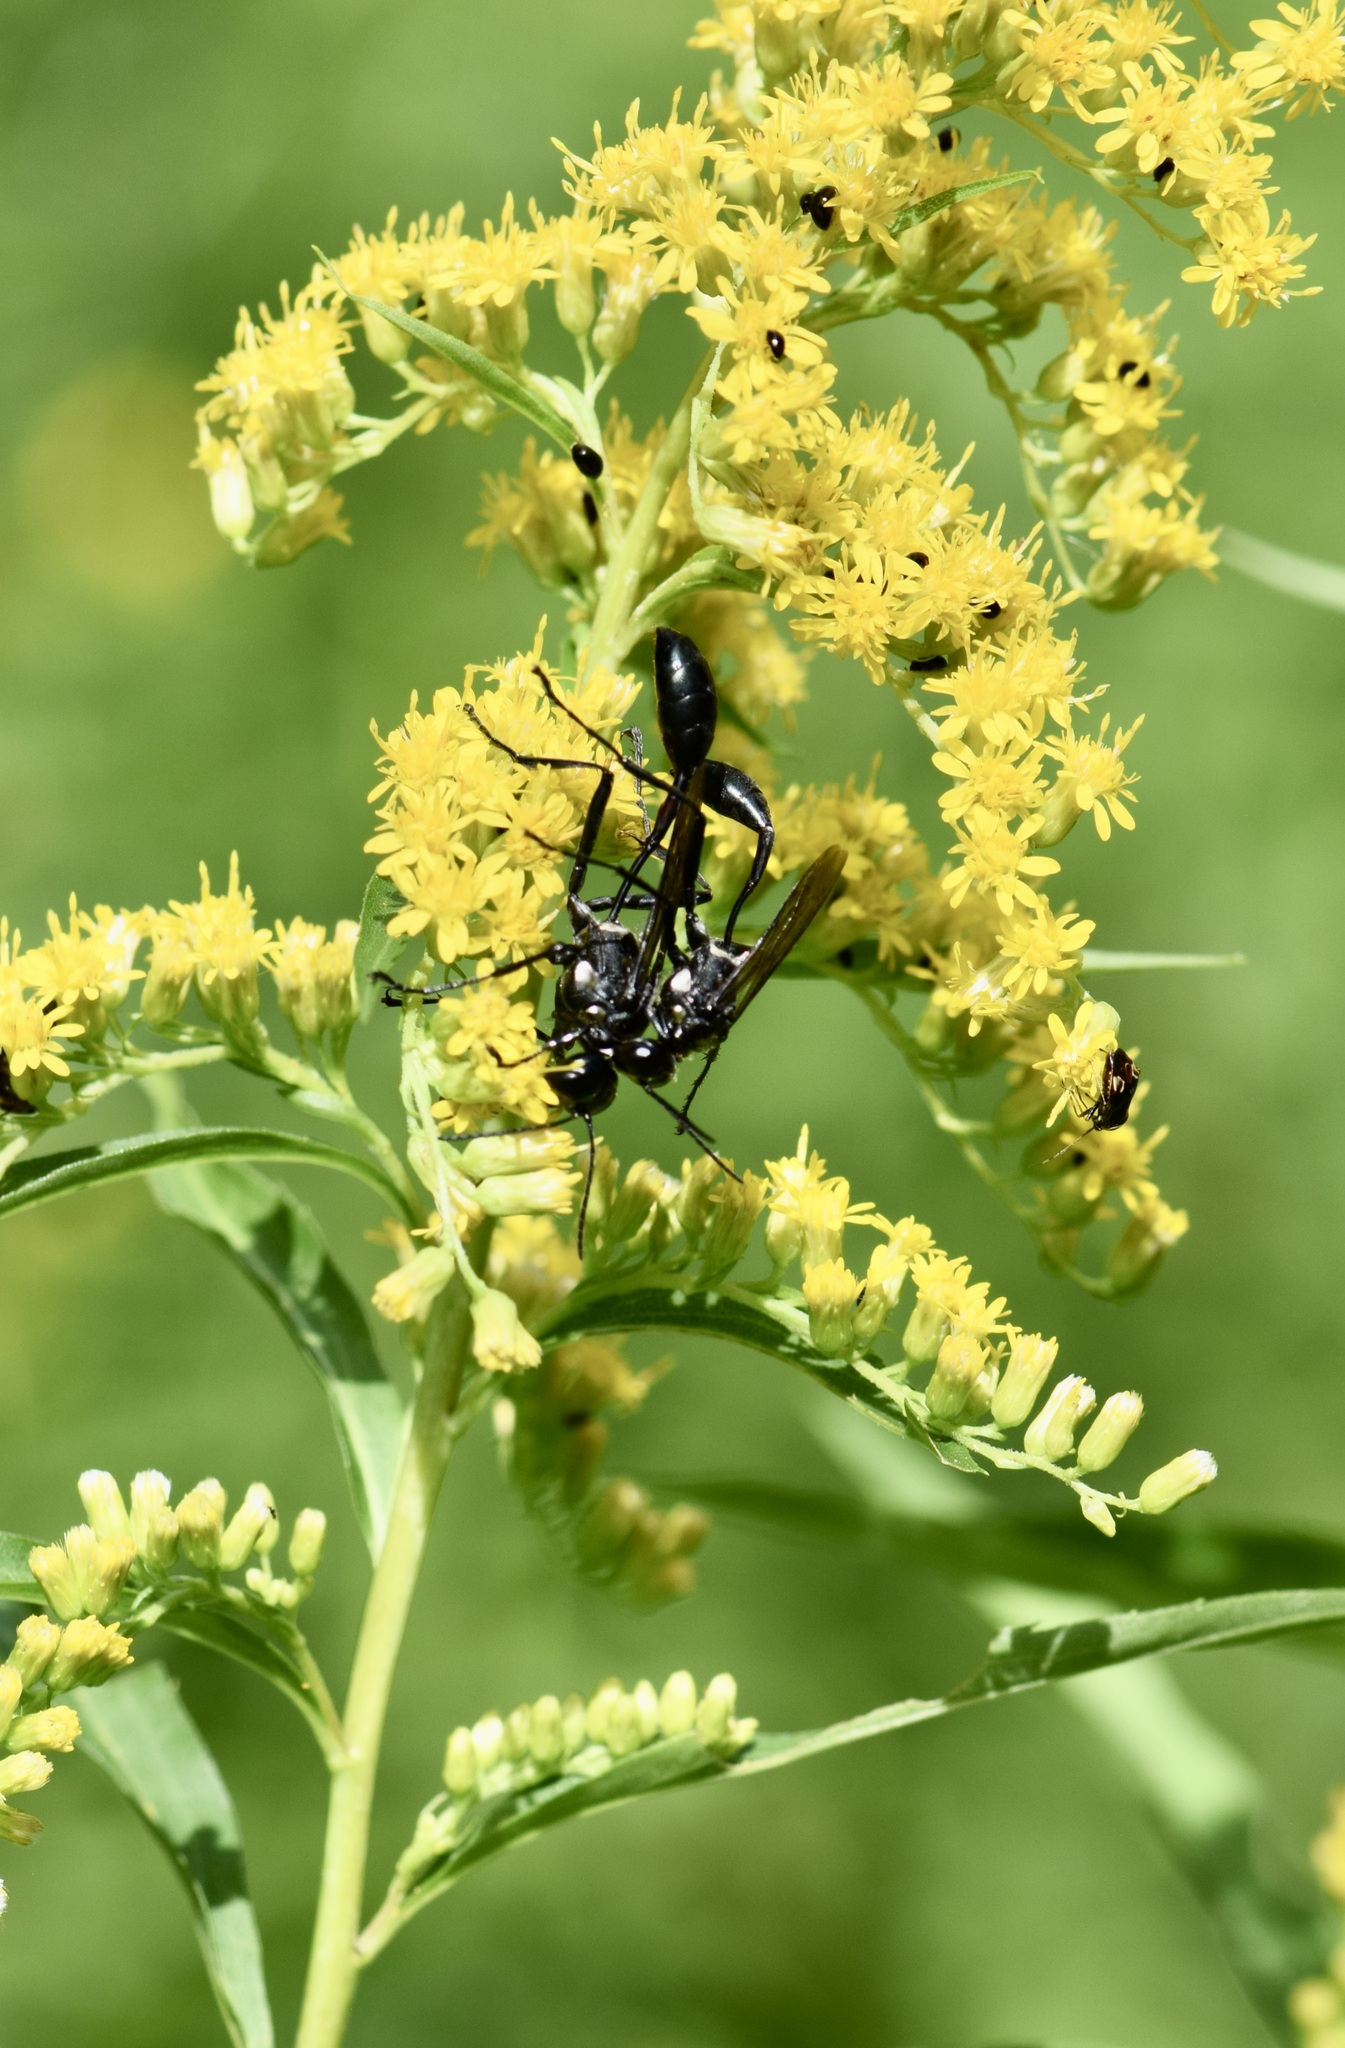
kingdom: Animalia
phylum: Arthropoda
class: Insecta
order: Hymenoptera
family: Sphecidae
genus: Eremnophila
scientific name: Eremnophila aureonotata
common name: Gold-marked thread-waisted wasp
